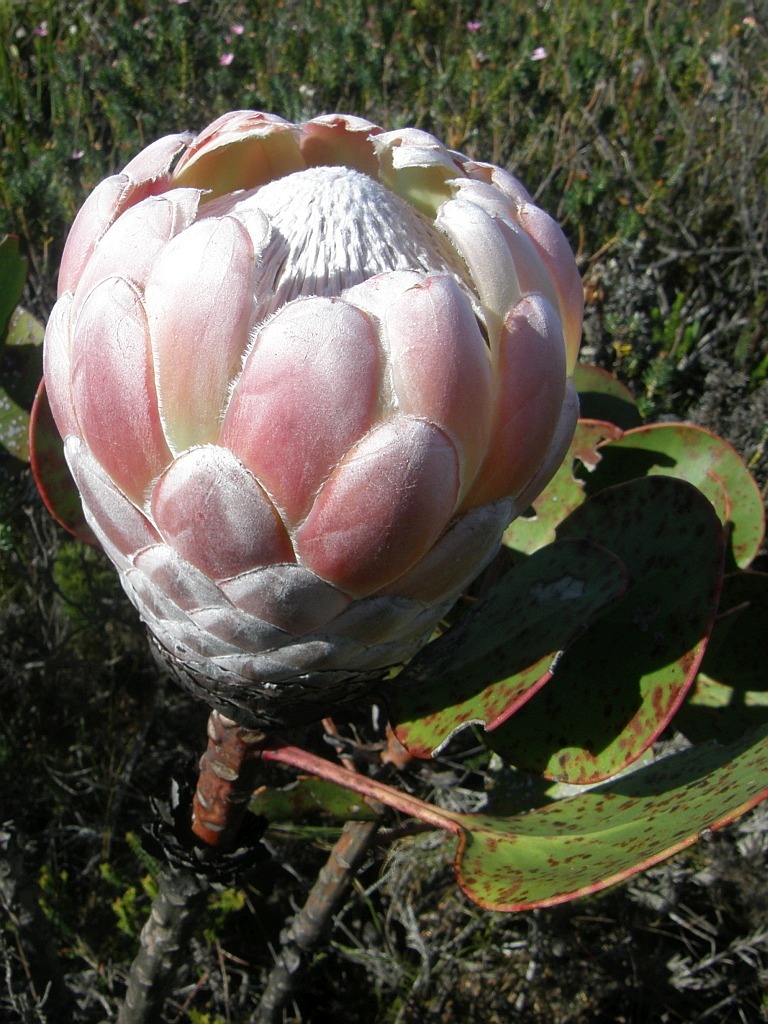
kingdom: Plantae
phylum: Tracheophyta
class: Magnoliopsida
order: Proteales
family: Proteaceae
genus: Protea
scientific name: Protea cynaroides
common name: King protea
